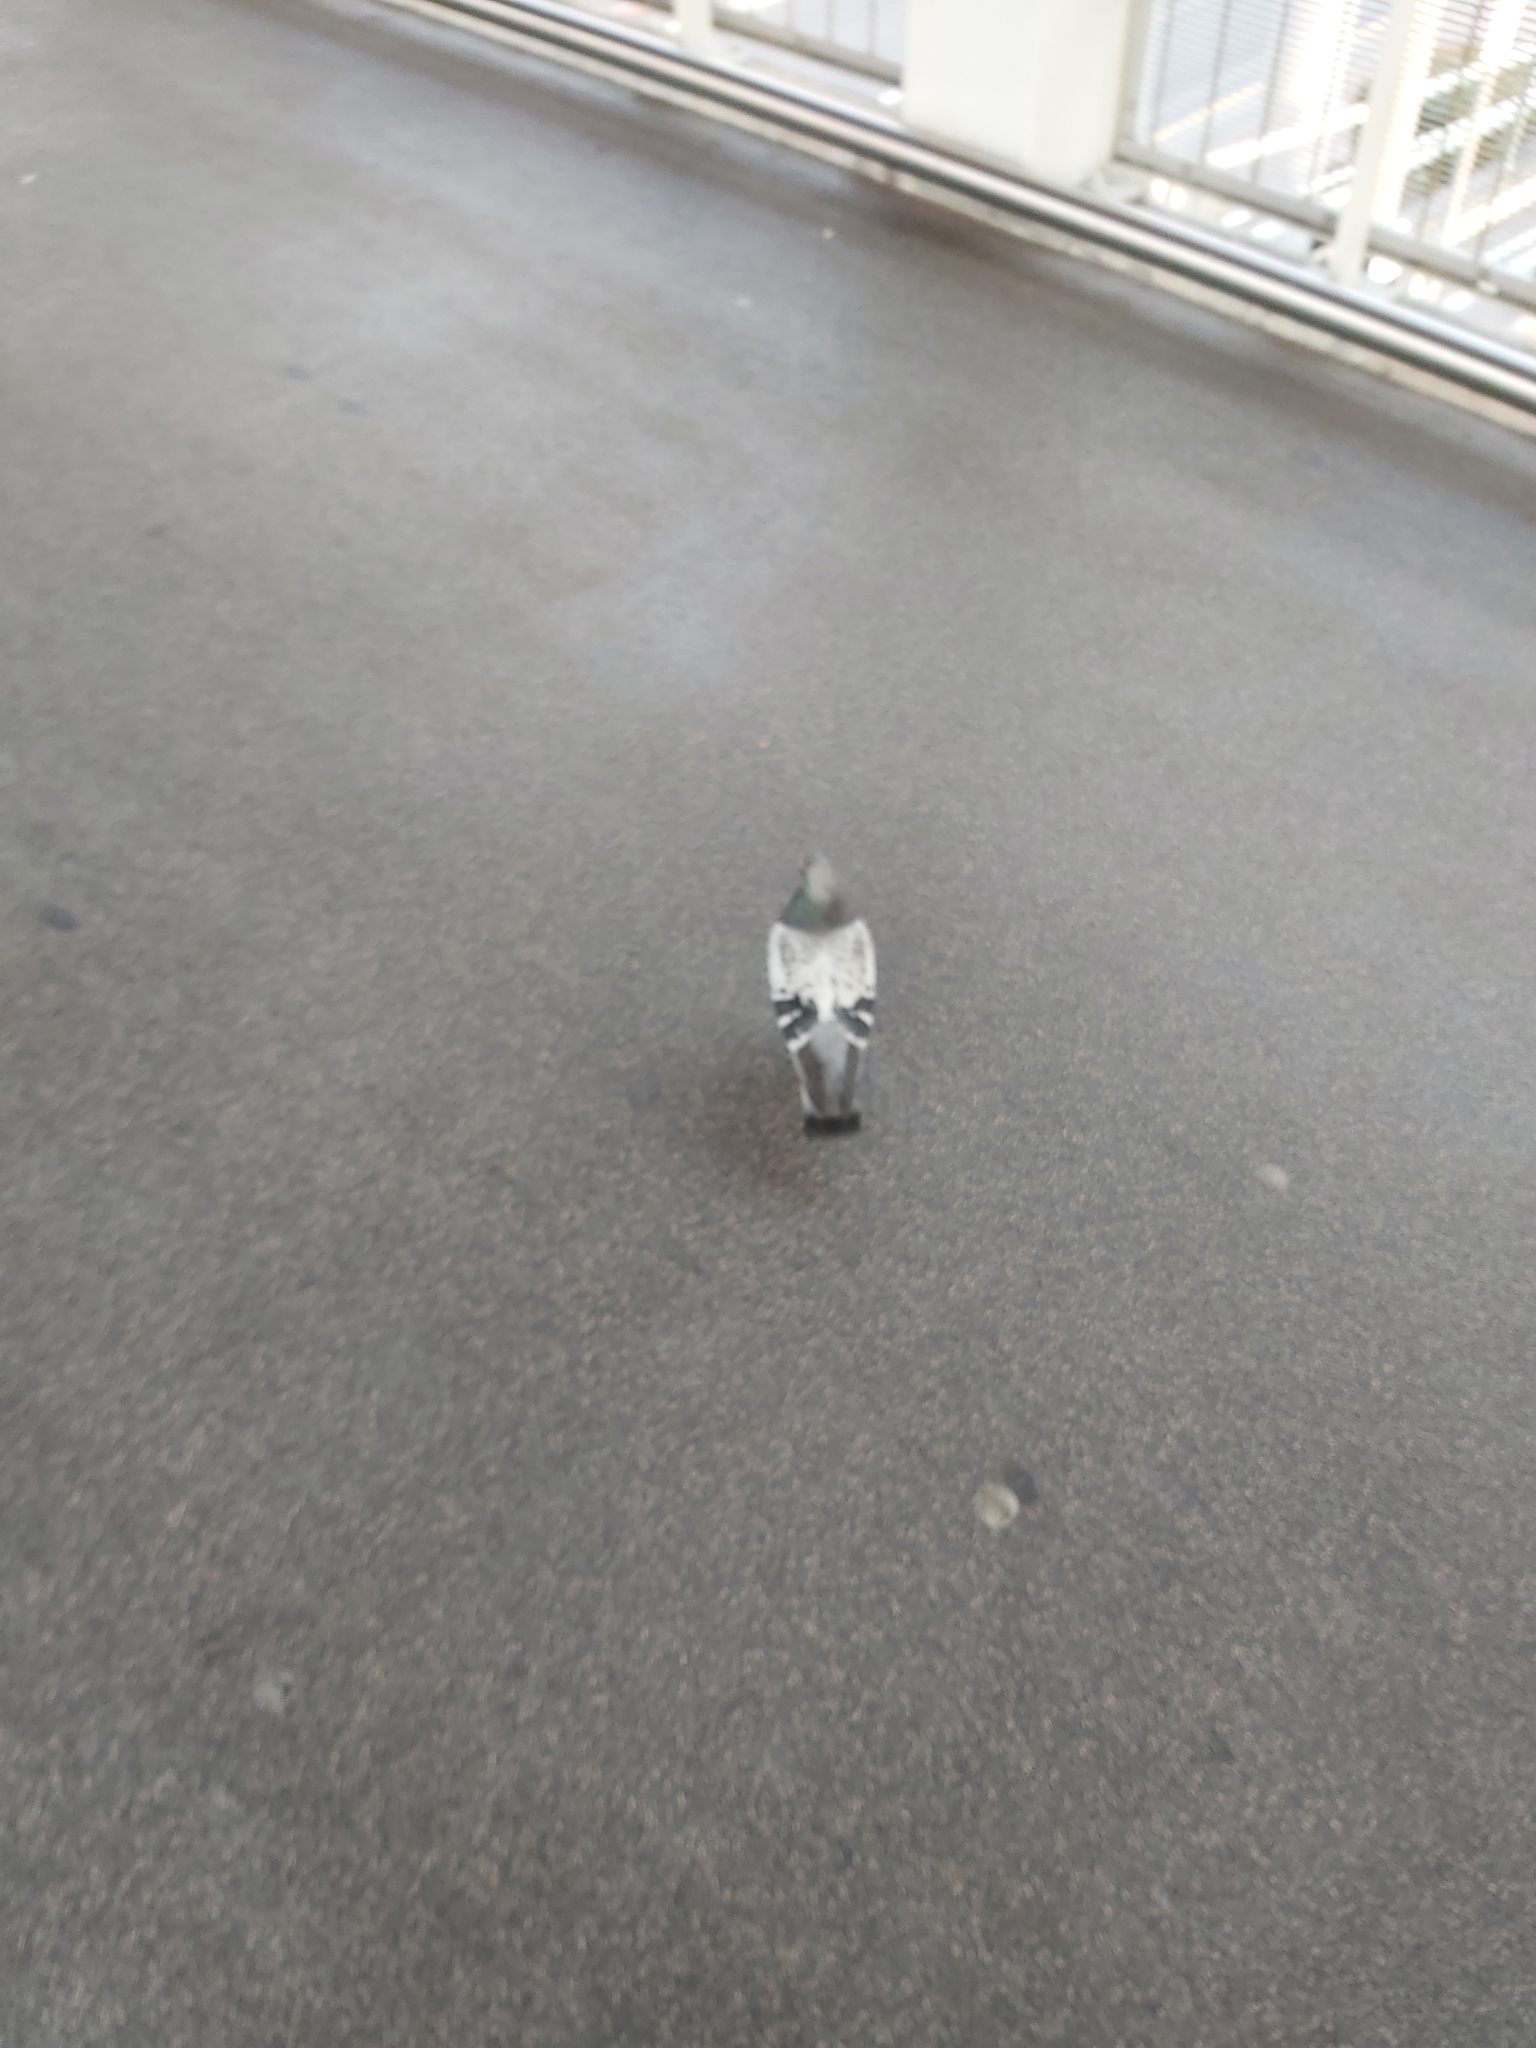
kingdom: Animalia
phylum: Chordata
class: Aves
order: Columbiformes
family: Columbidae
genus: Columba
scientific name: Columba livia
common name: Rock pigeon
